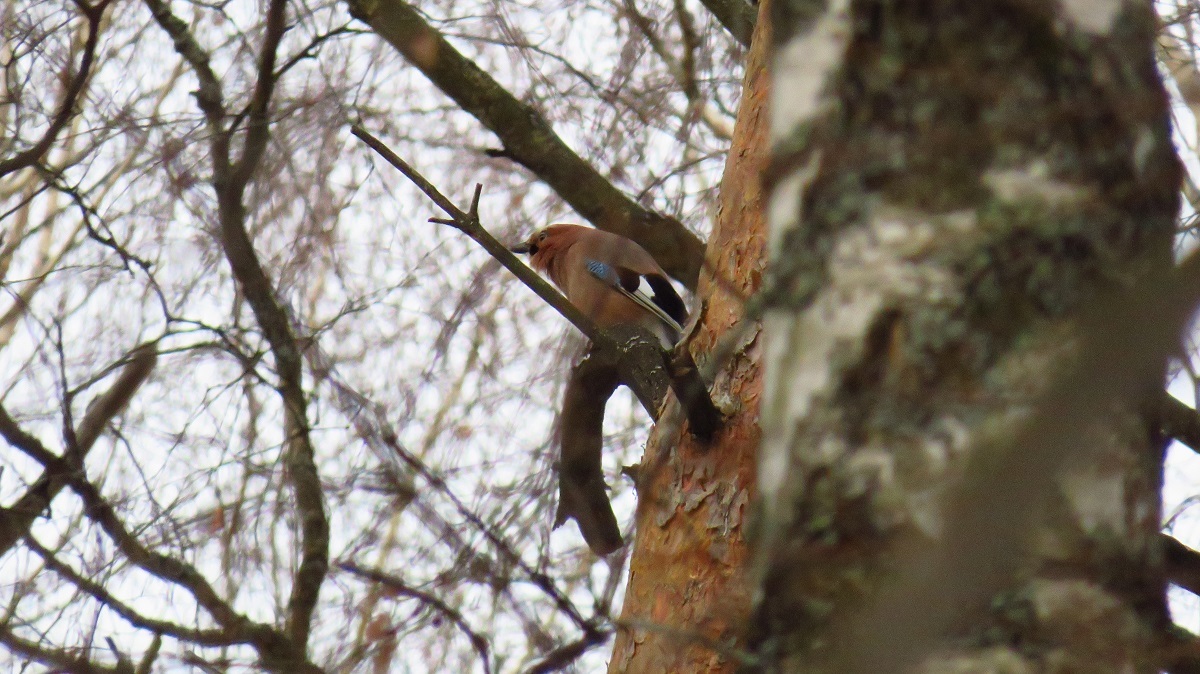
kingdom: Animalia
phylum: Chordata
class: Aves
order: Passeriformes
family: Corvidae
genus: Garrulus
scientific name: Garrulus glandarius
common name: Eurasian jay
